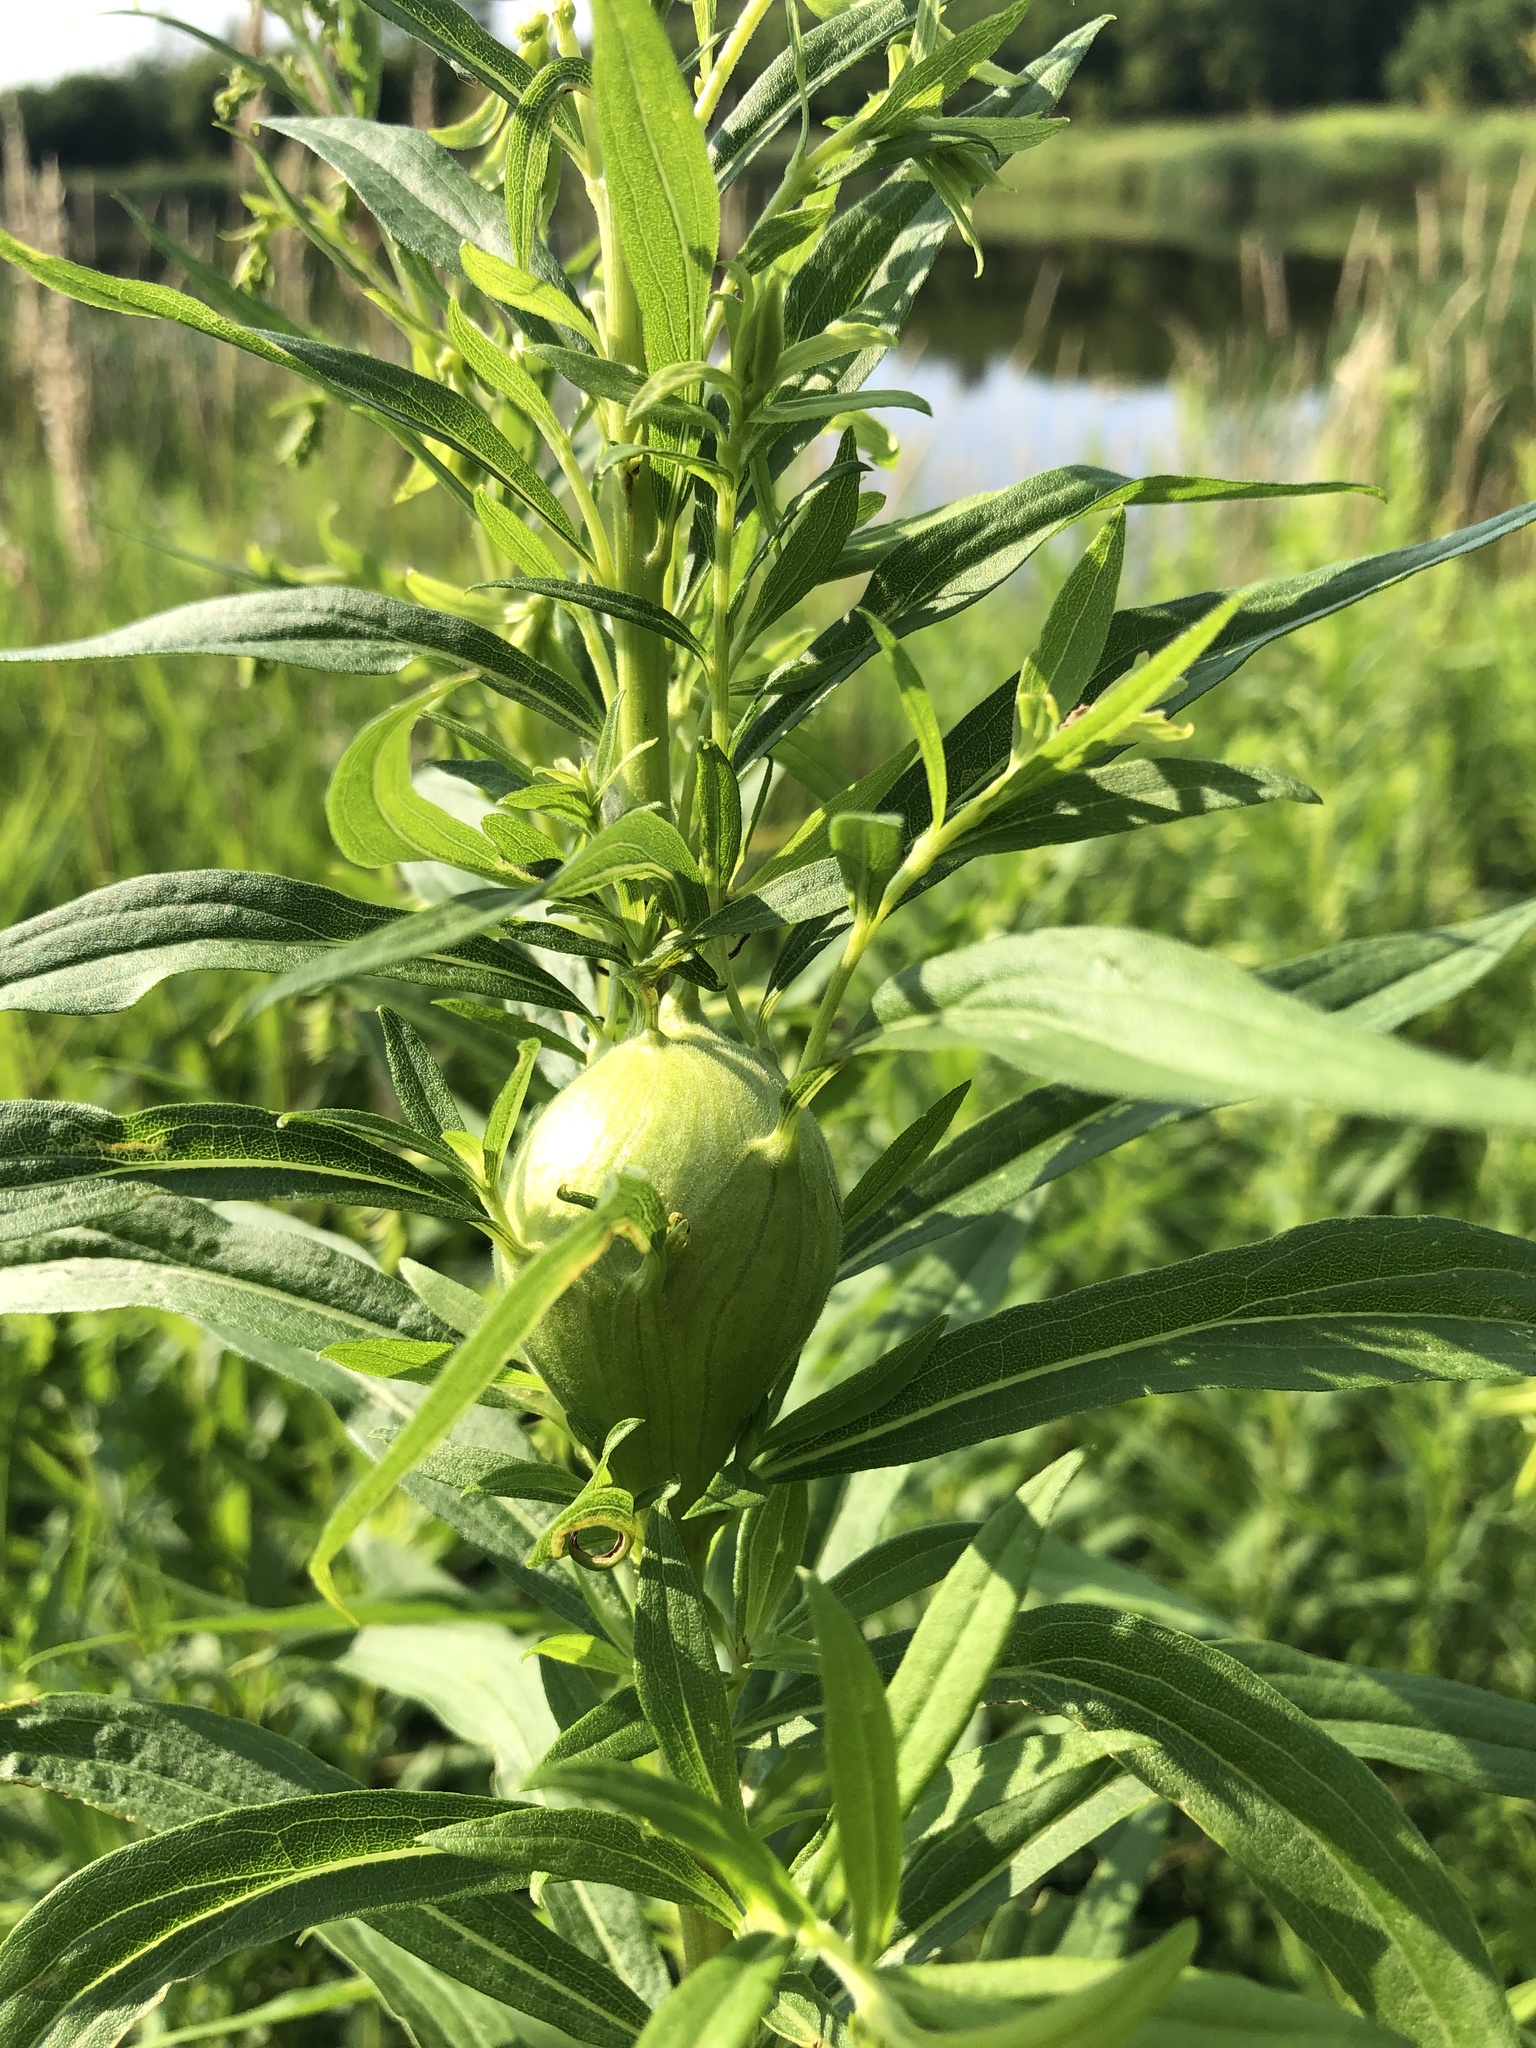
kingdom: Animalia
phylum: Arthropoda
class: Insecta
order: Diptera
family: Tephritidae
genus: Eurosta
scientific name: Eurosta solidaginis
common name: Goldenrod gall fly
